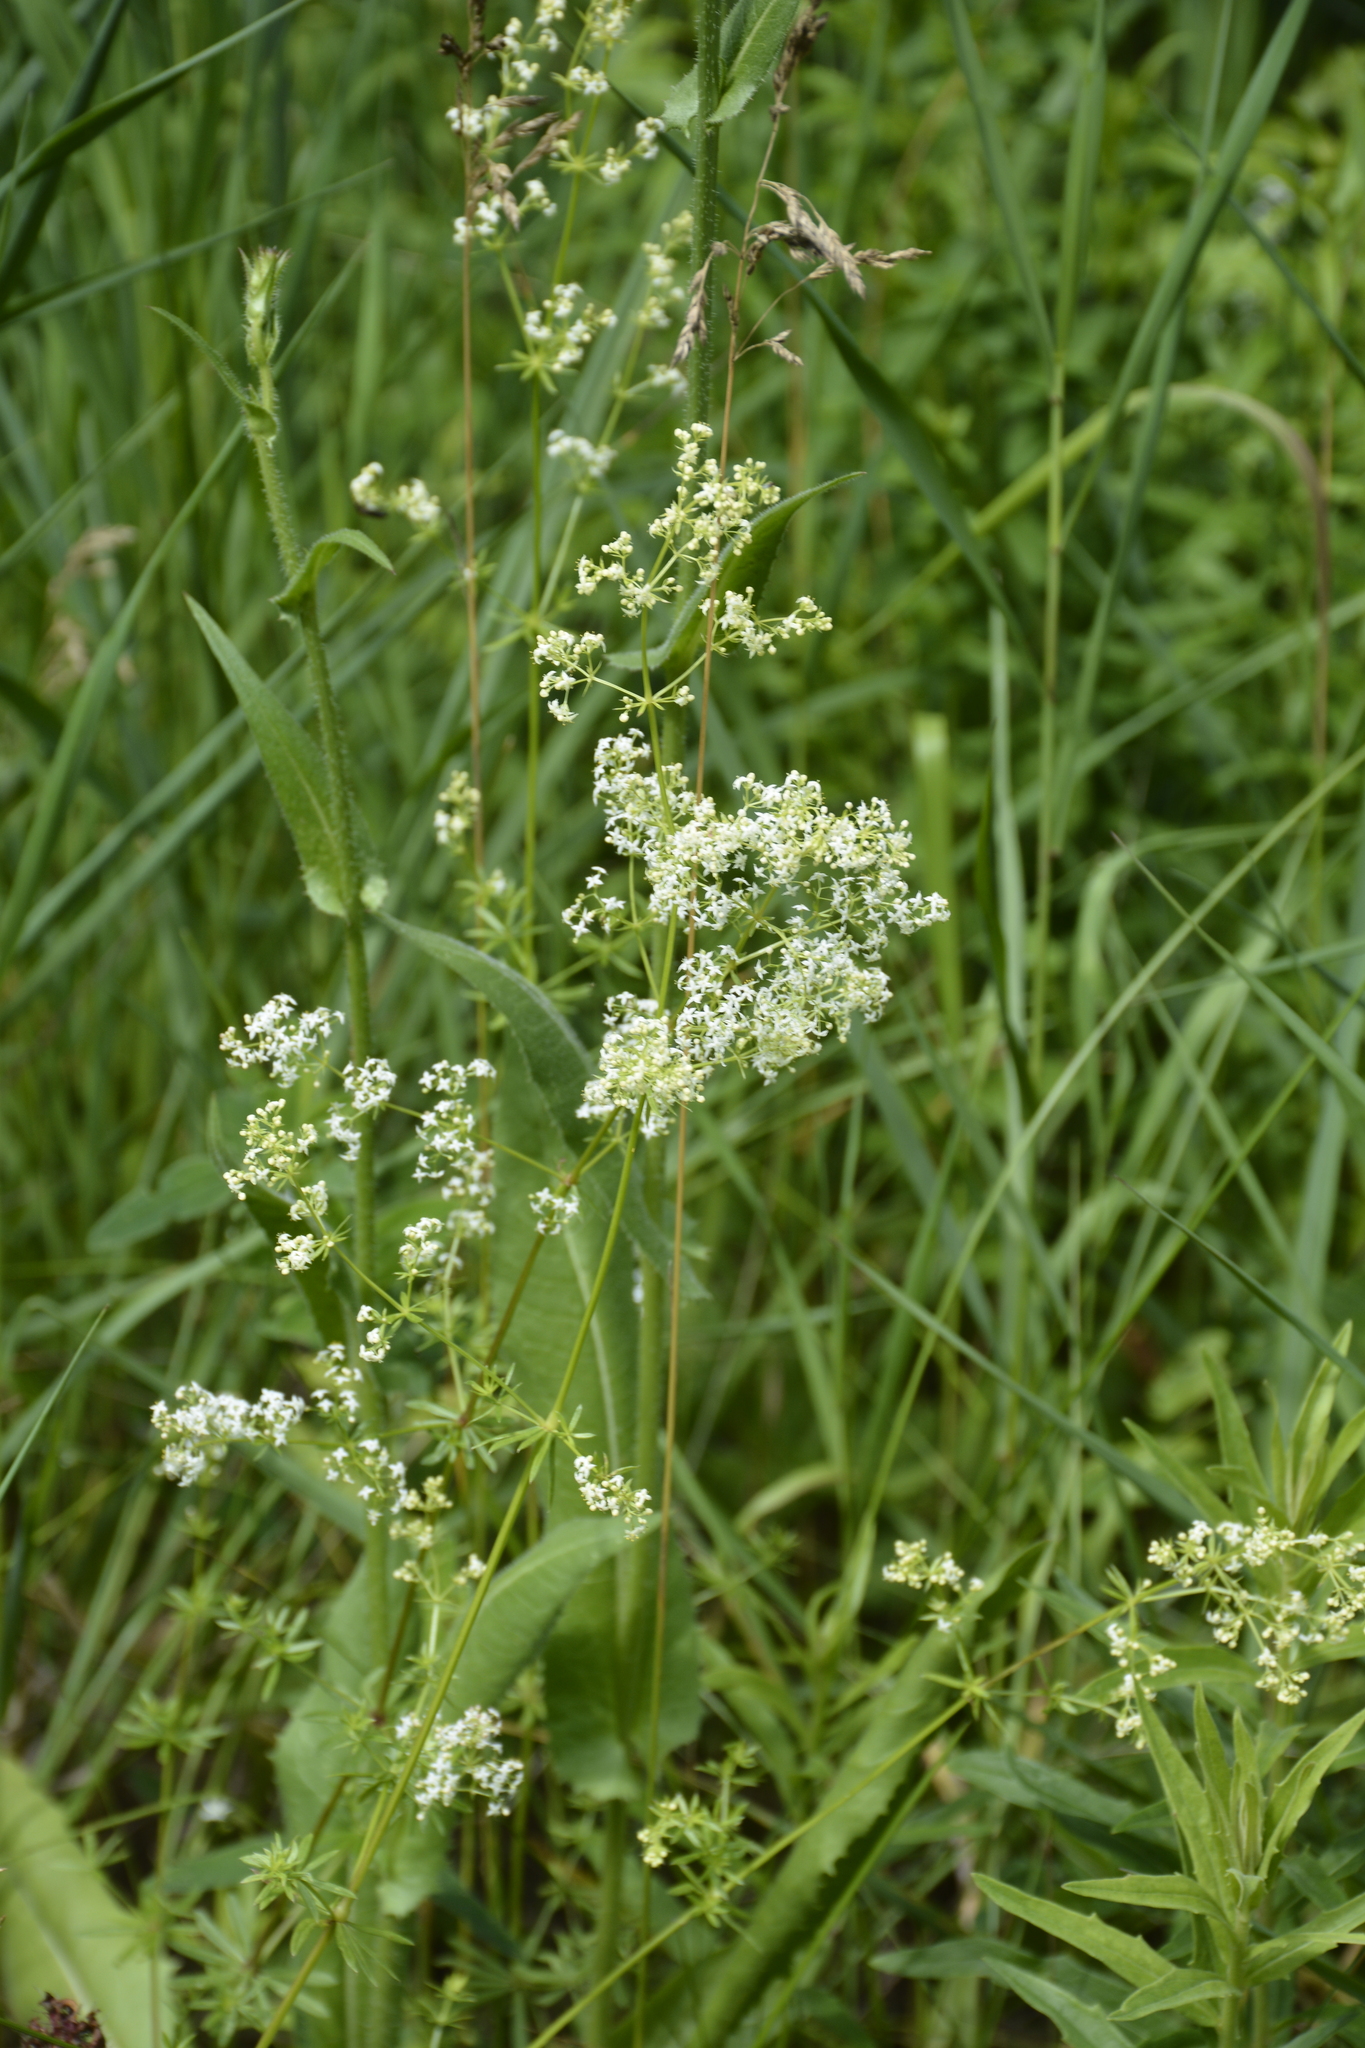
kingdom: Plantae
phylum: Tracheophyta
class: Magnoliopsida
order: Gentianales
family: Rubiaceae
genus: Galium
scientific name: Galium mollugo
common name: Hedge bedstraw
